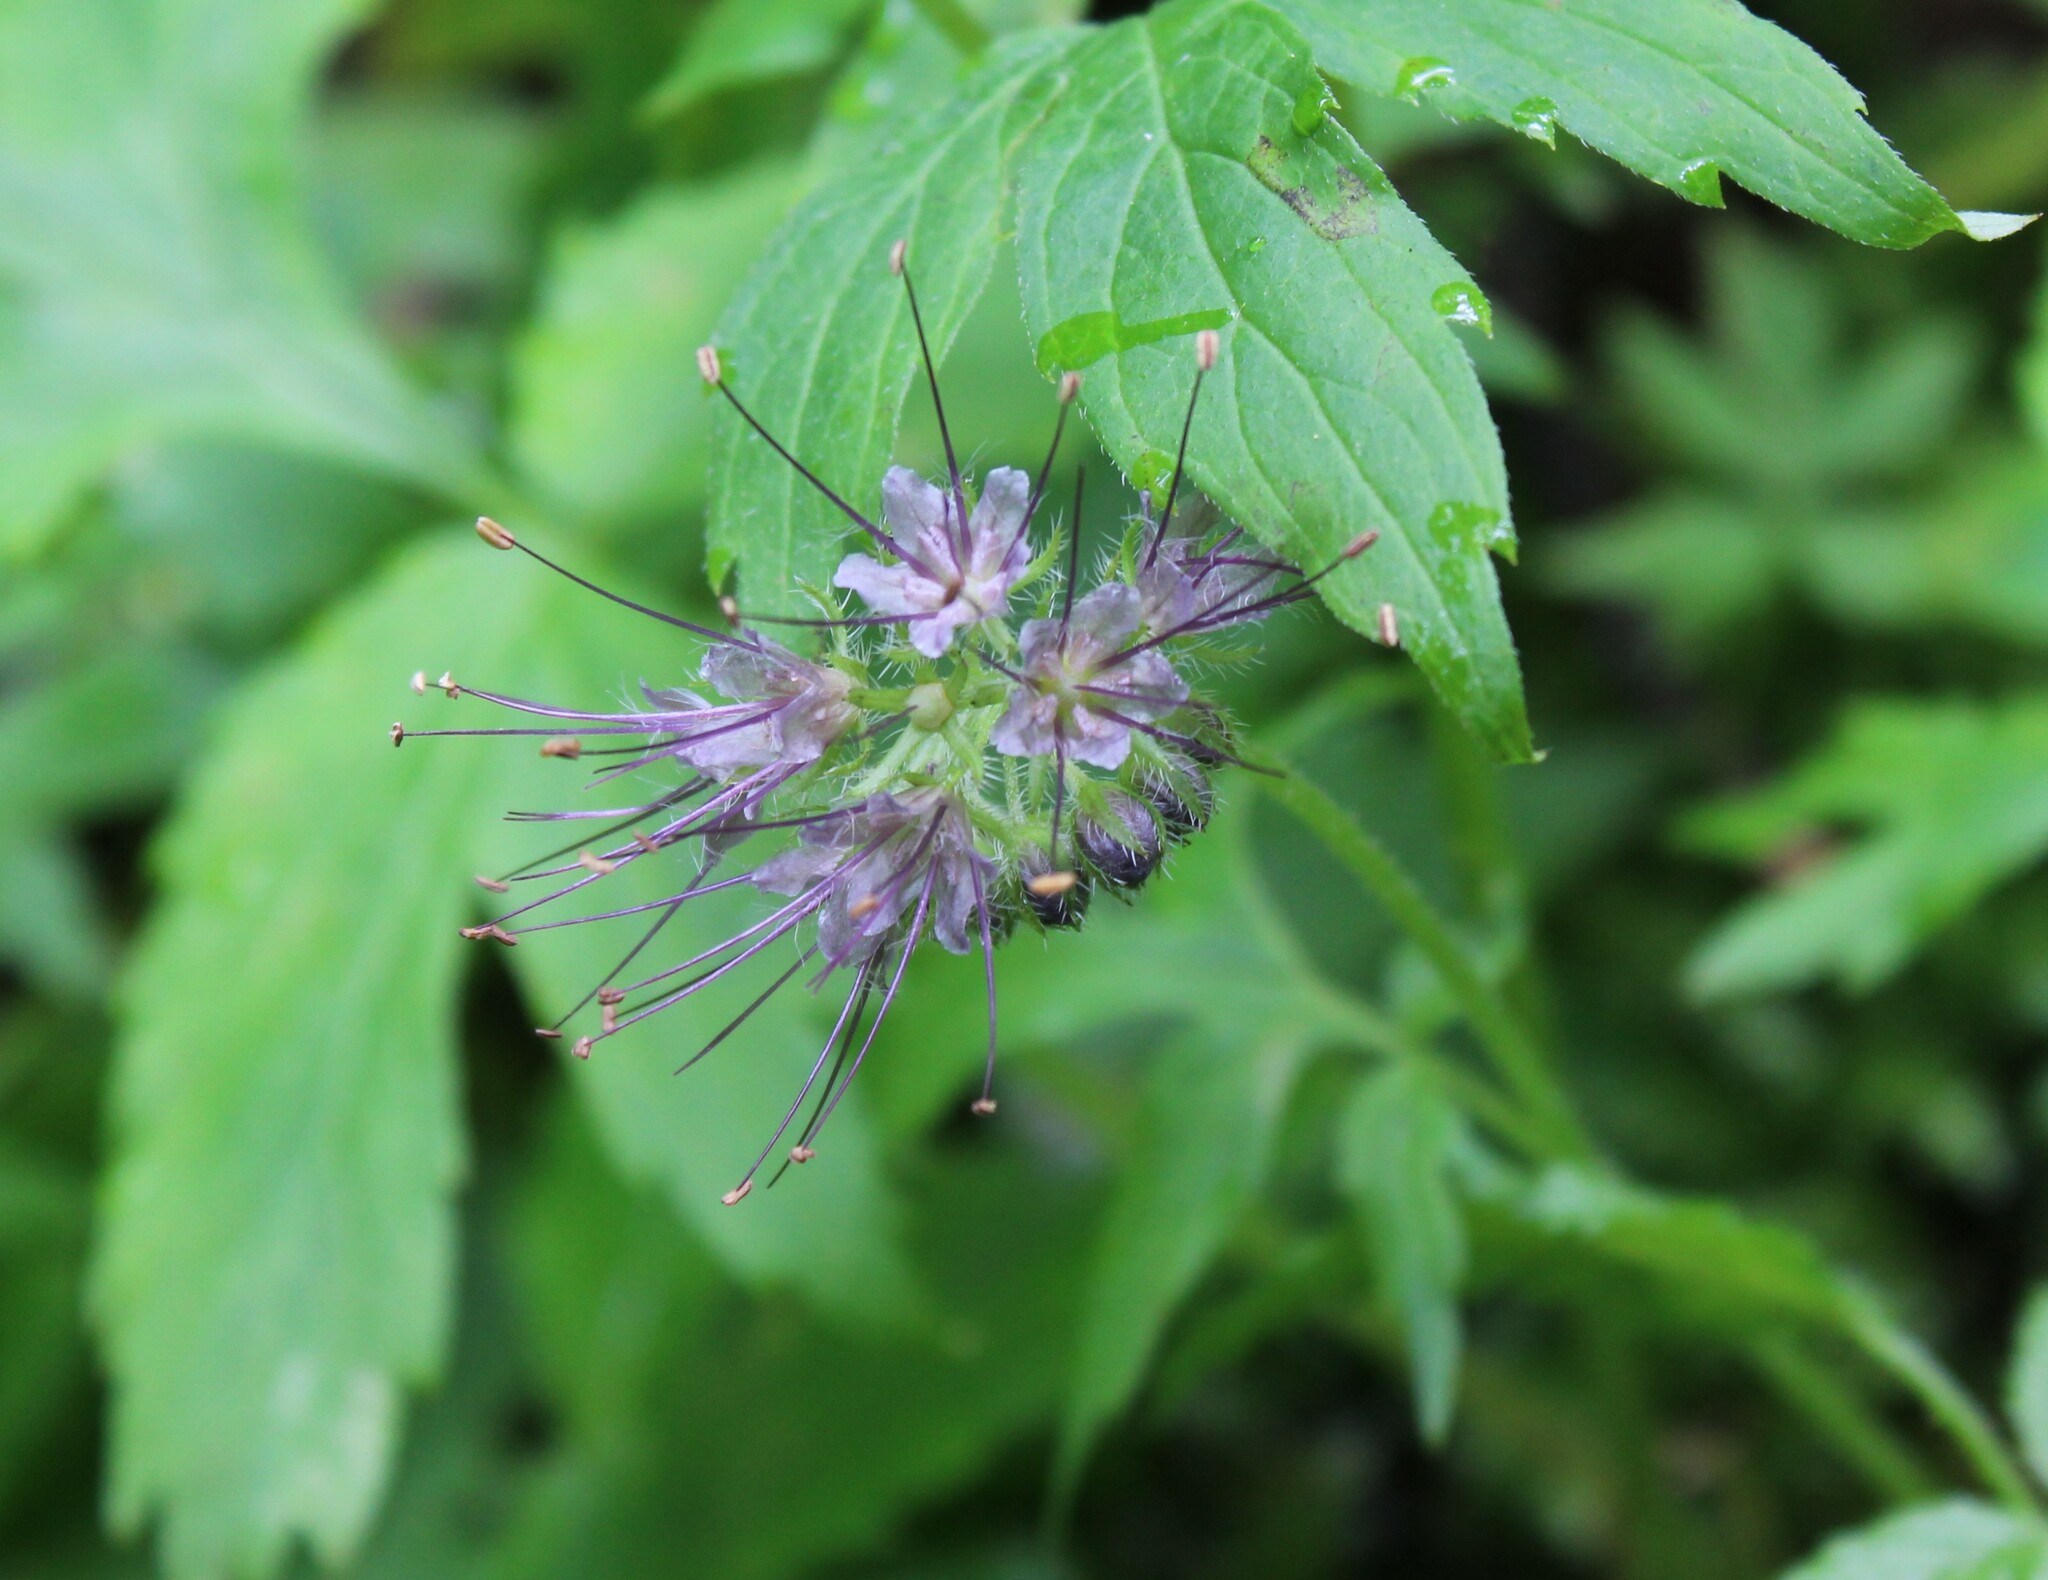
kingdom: Plantae
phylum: Tracheophyta
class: Magnoliopsida
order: Boraginales
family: Hydrophyllaceae
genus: Hydrophyllum
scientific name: Hydrophyllum tenuipes
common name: Pacific waterleaf
